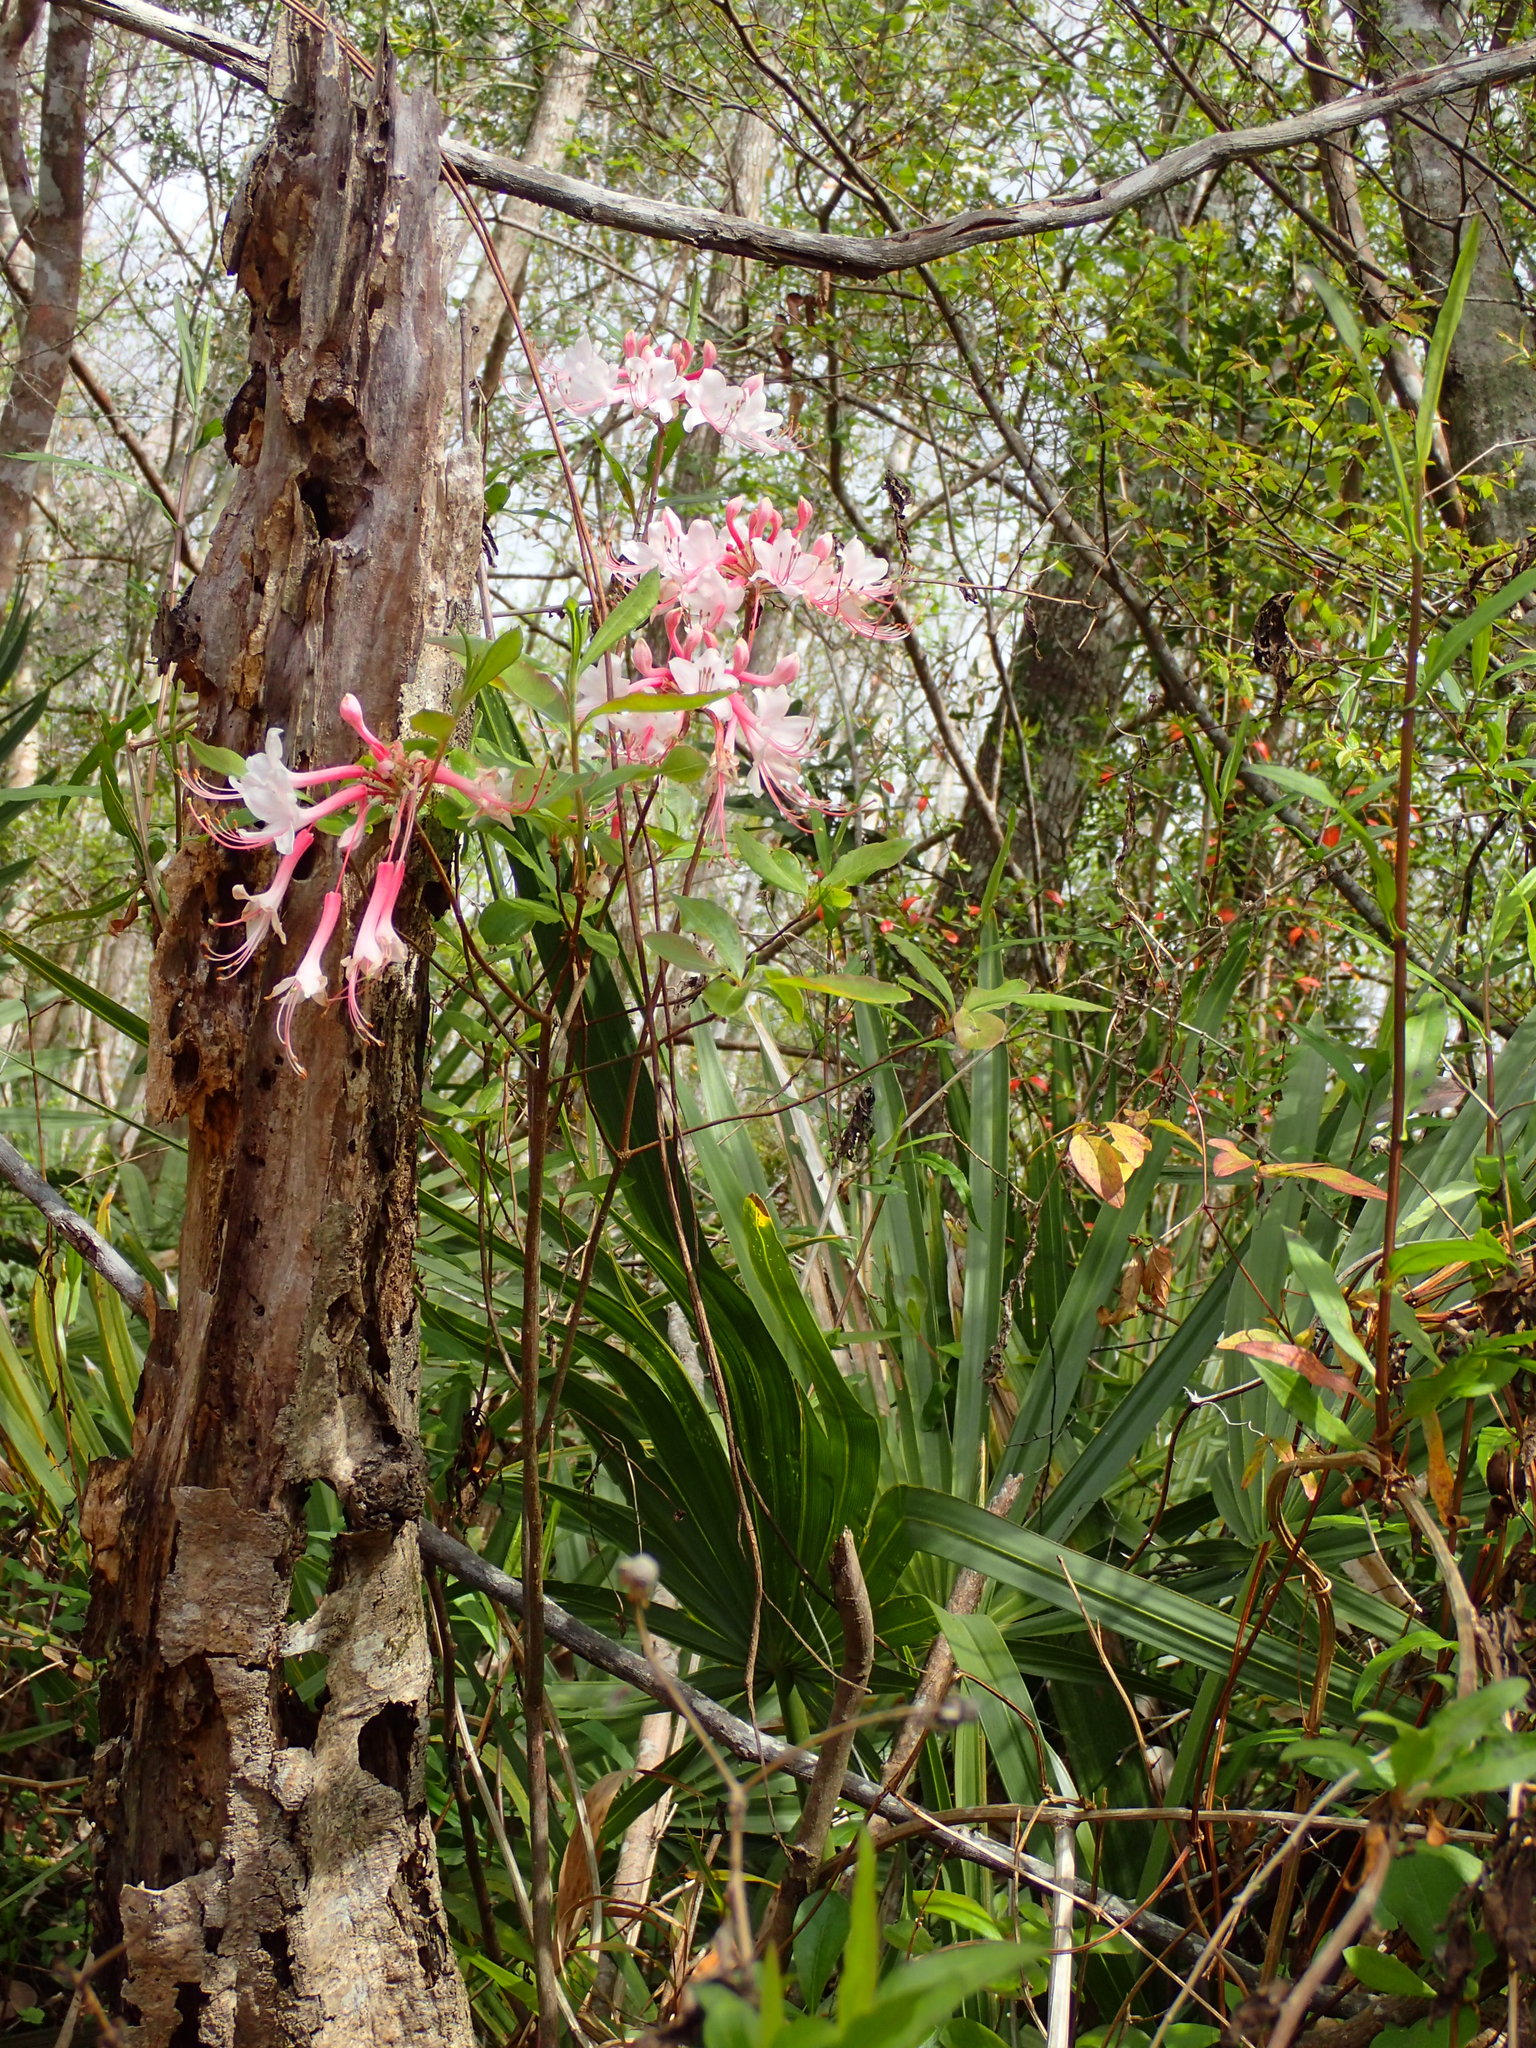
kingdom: Plantae
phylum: Tracheophyta
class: Magnoliopsida
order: Ericales
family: Ericaceae
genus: Rhododendron
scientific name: Rhododendron canescens
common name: Mountain azalea
